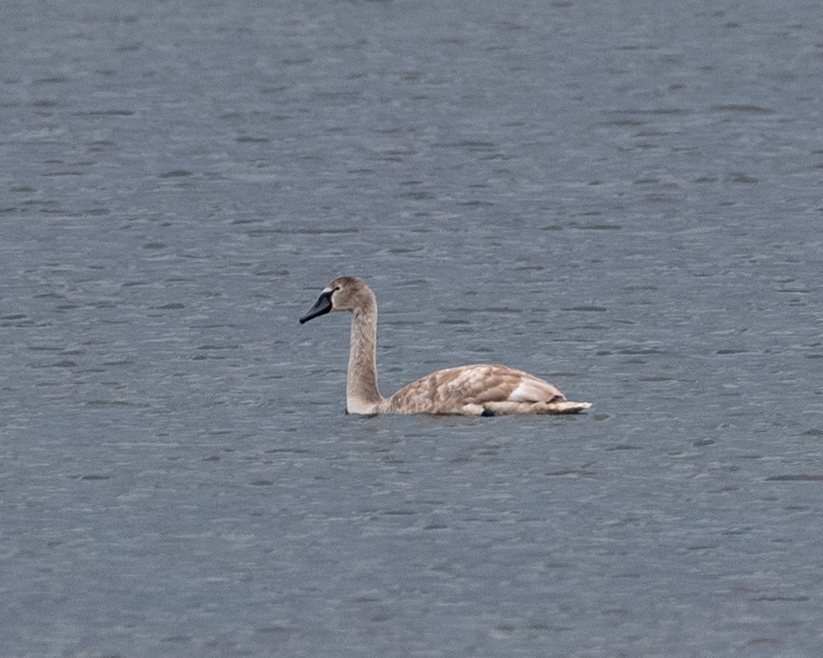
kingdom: Animalia
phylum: Chordata
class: Aves
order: Anseriformes
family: Anatidae
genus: Cygnus
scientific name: Cygnus olor
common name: Mute swan
